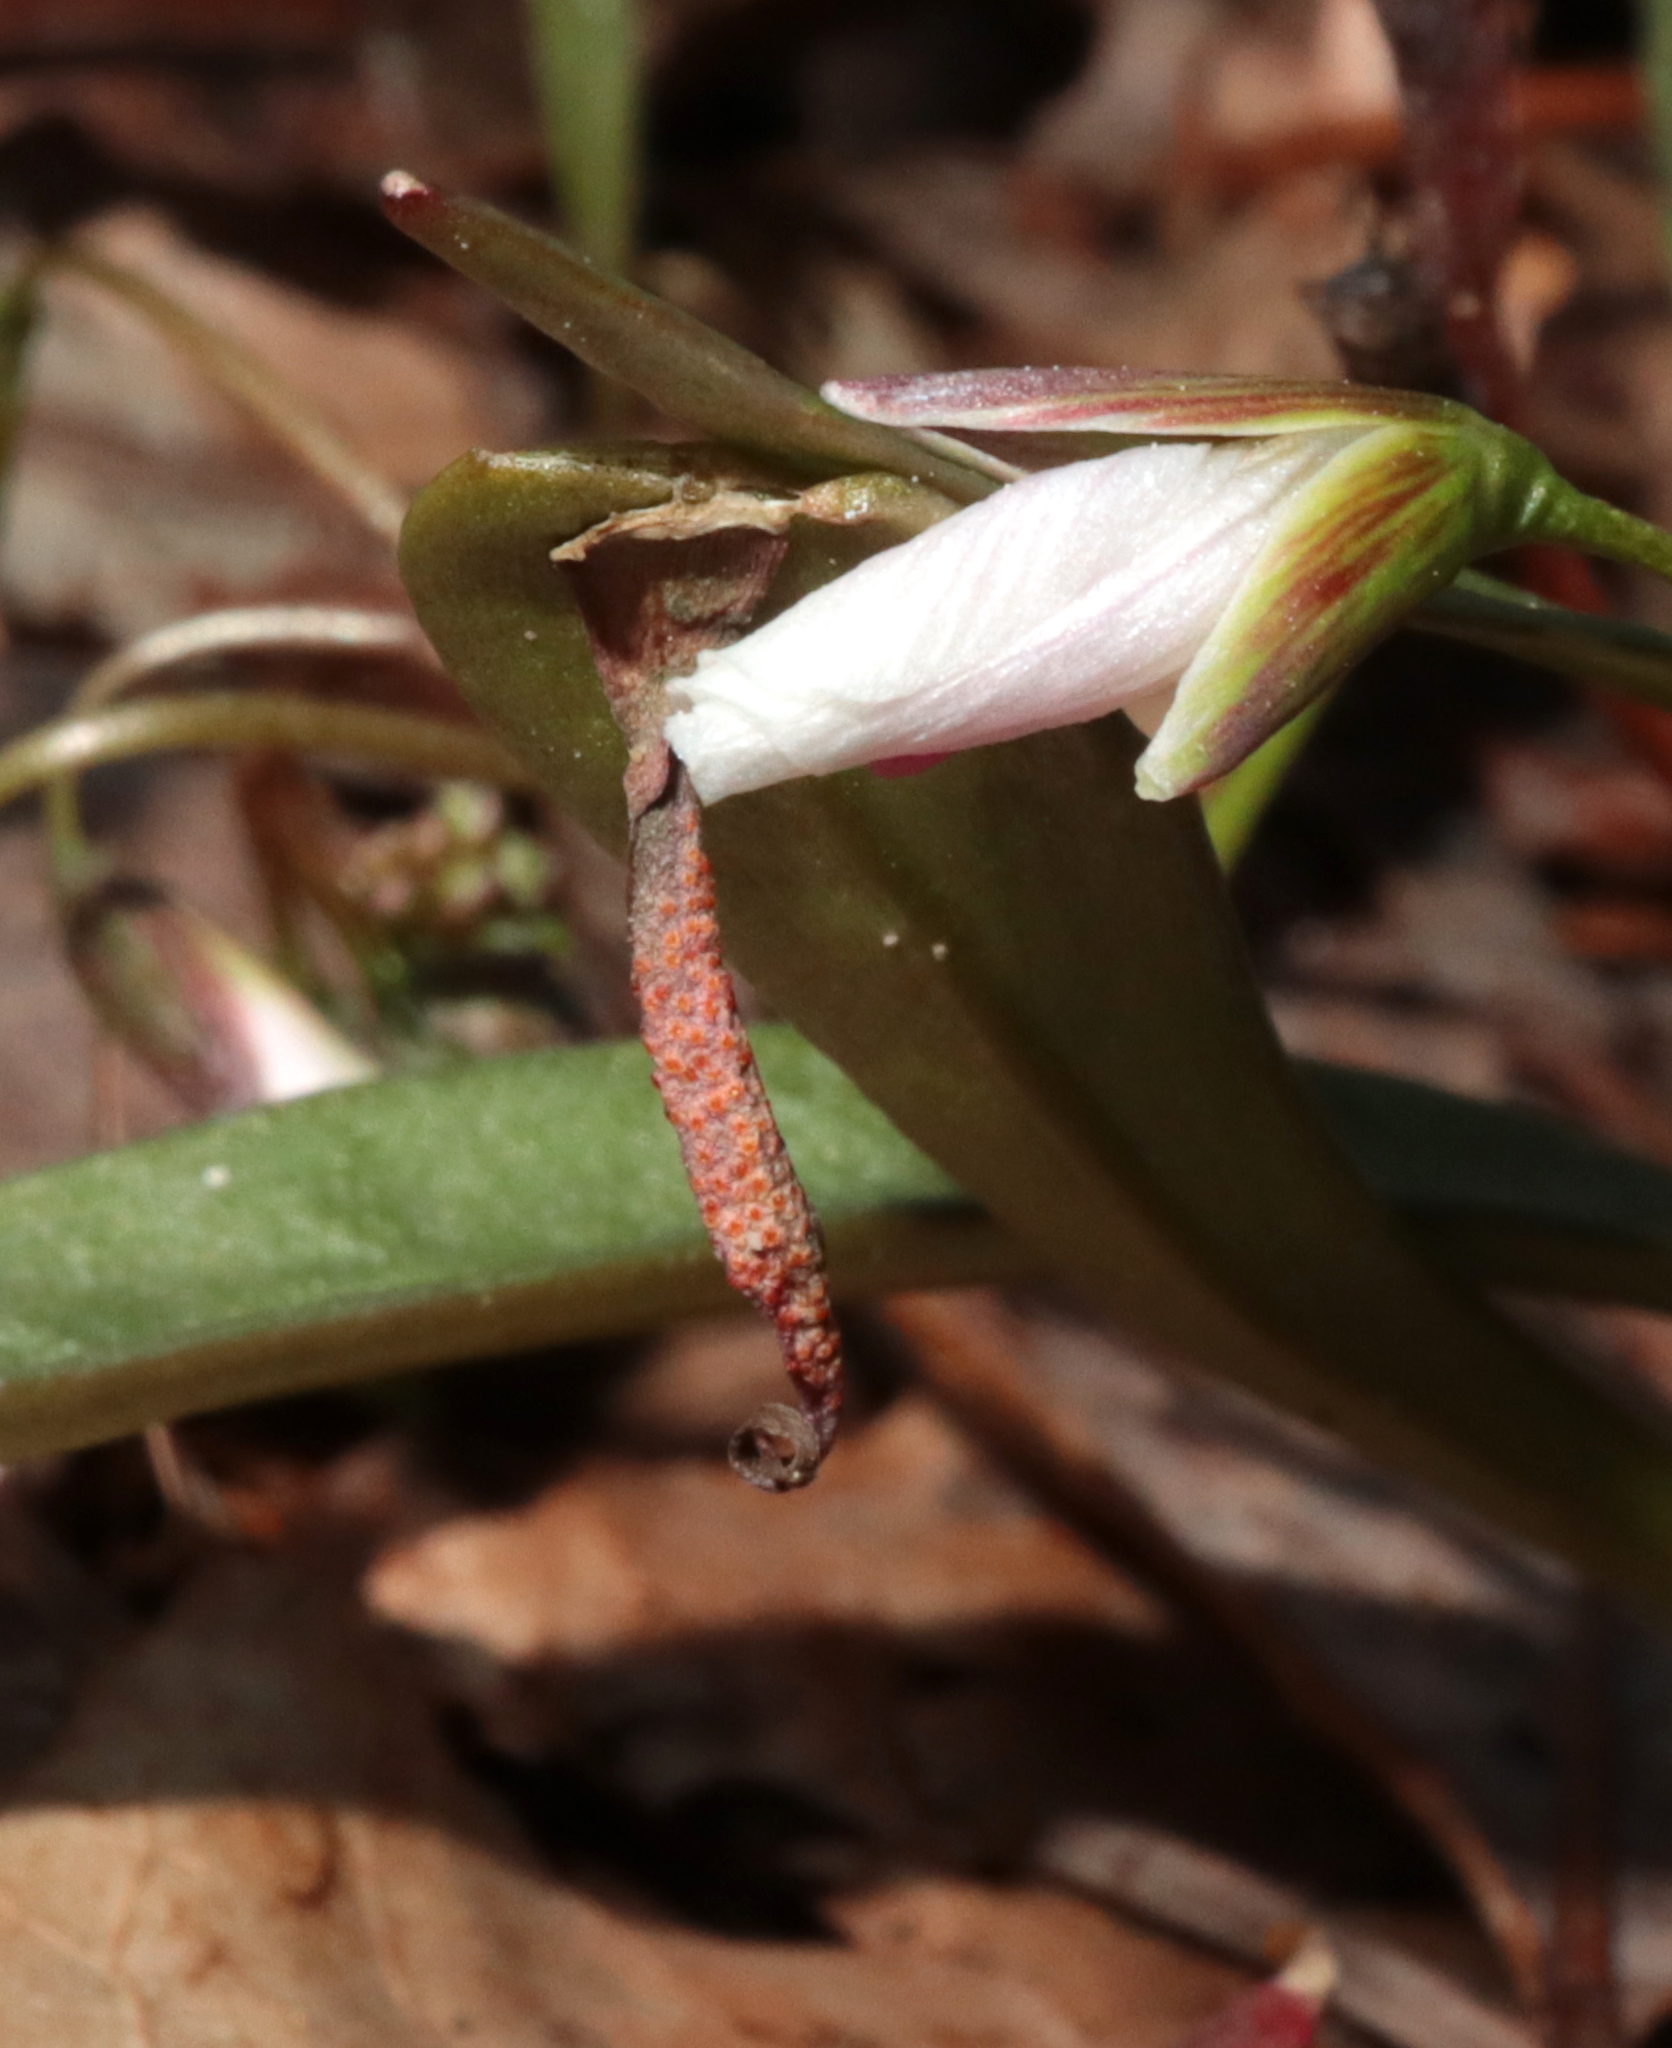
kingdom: Fungi
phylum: Basidiomycota
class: Pucciniomycetes
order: Pucciniales
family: Pucciniaceae
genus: Puccinia
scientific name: Puccinia mariae-wilsoniae
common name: Spring beauty rust
